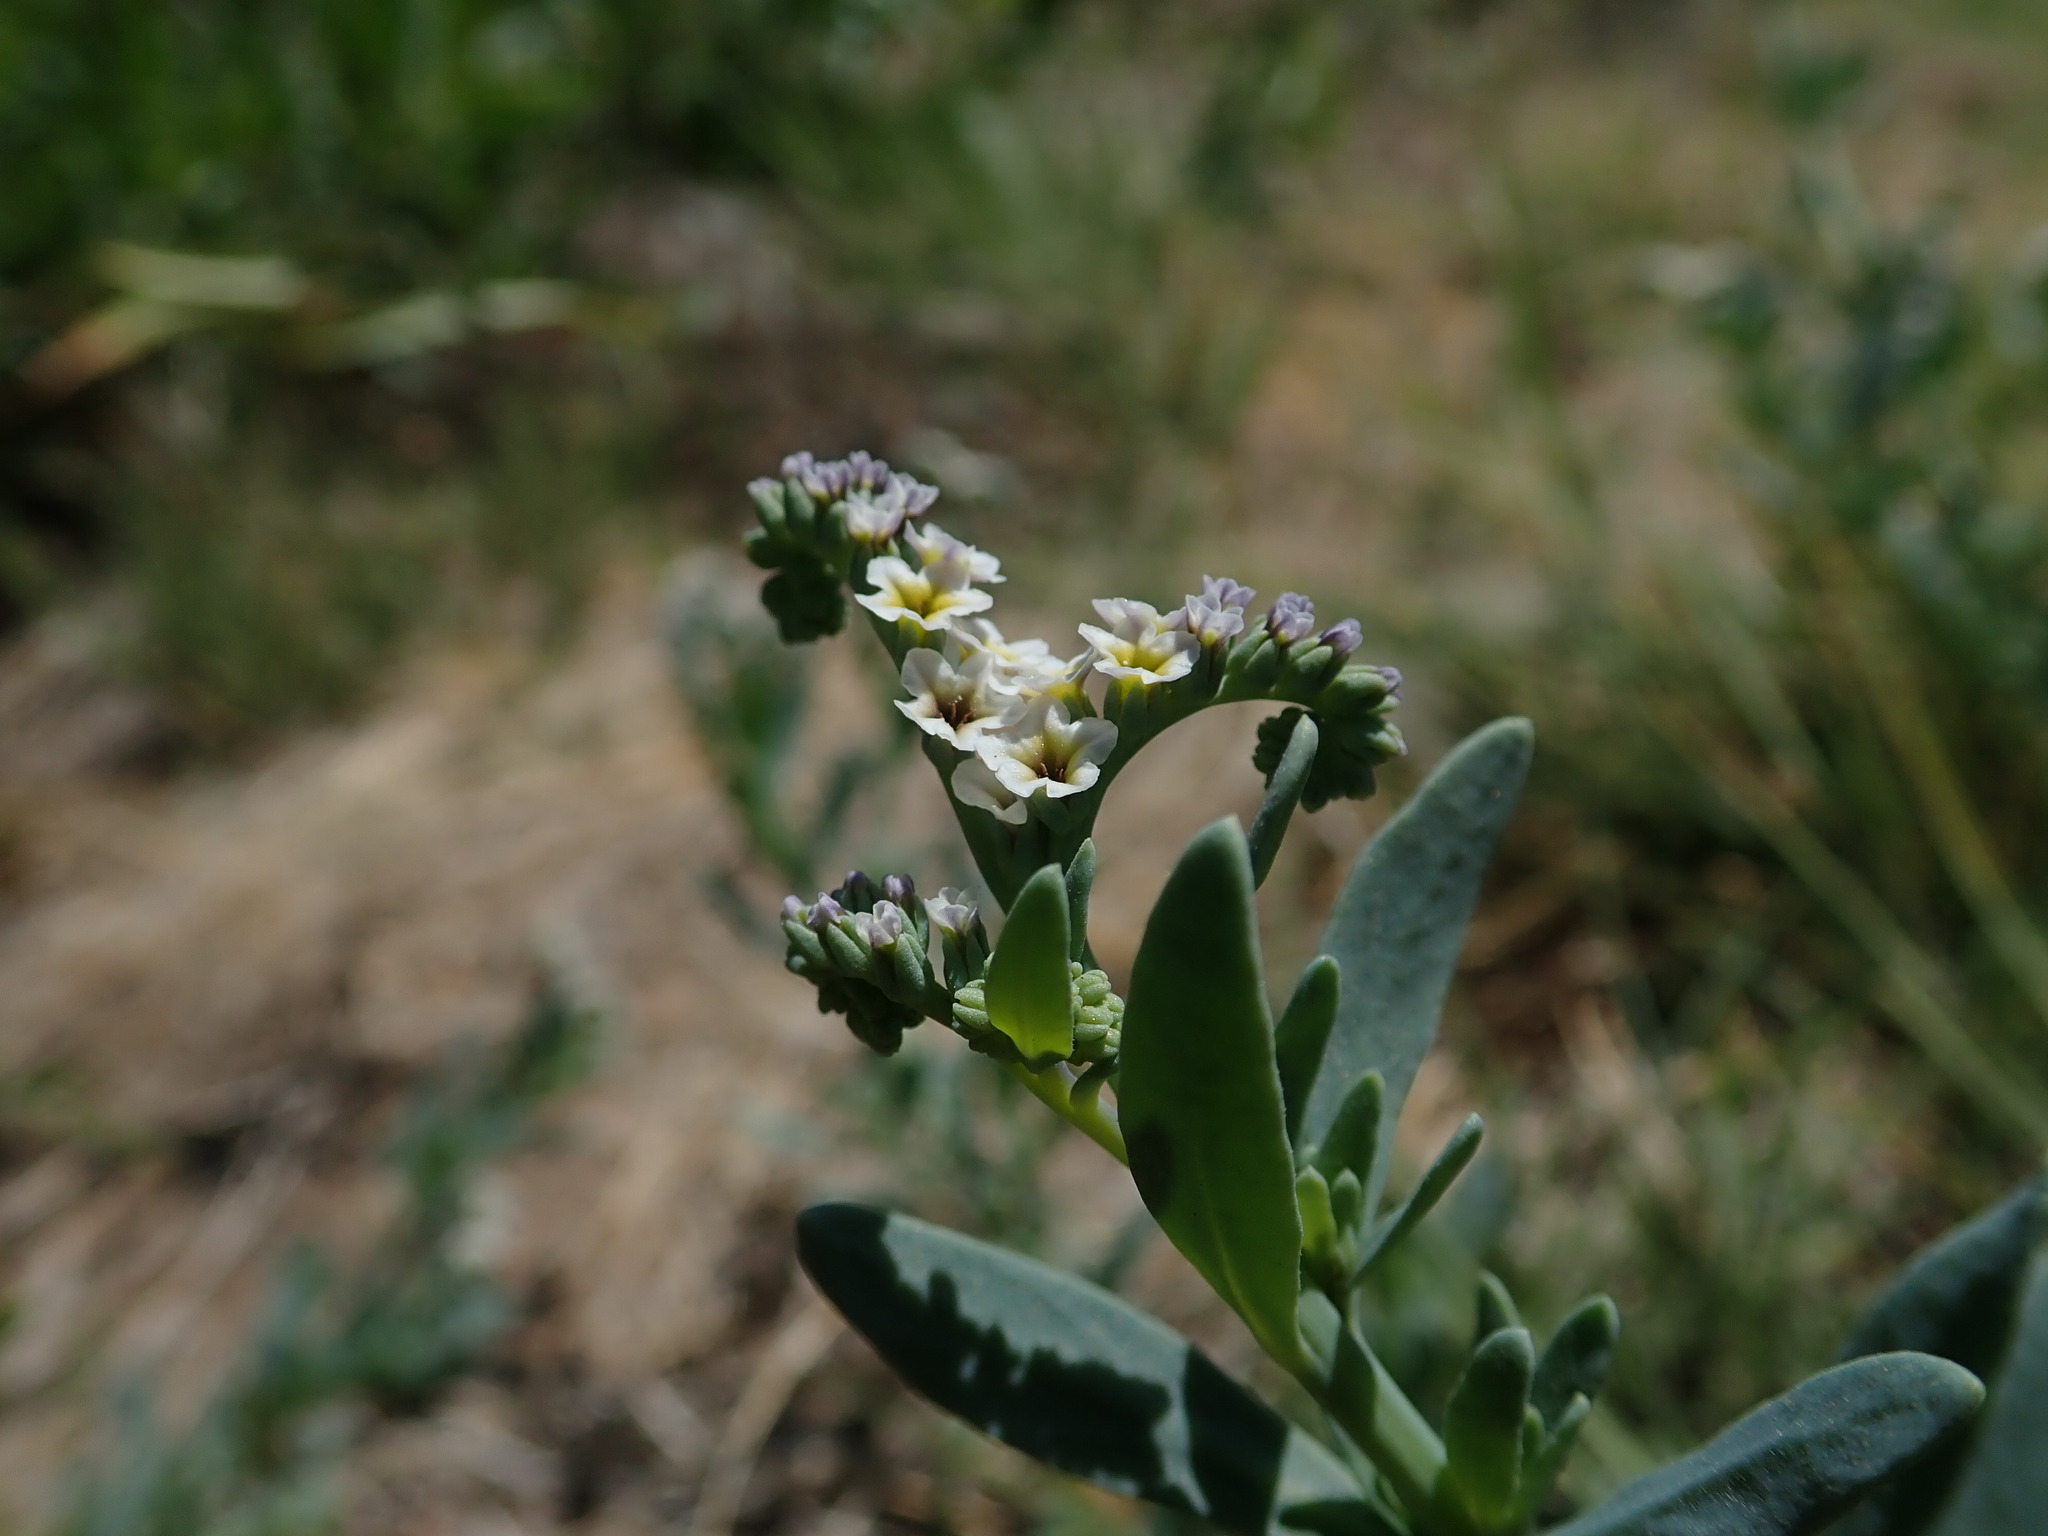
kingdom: Plantae
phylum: Tracheophyta
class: Magnoliopsida
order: Boraginales
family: Heliotropiaceae
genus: Heliotropium
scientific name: Heliotropium curassavicum
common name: Seaside heliotrope
